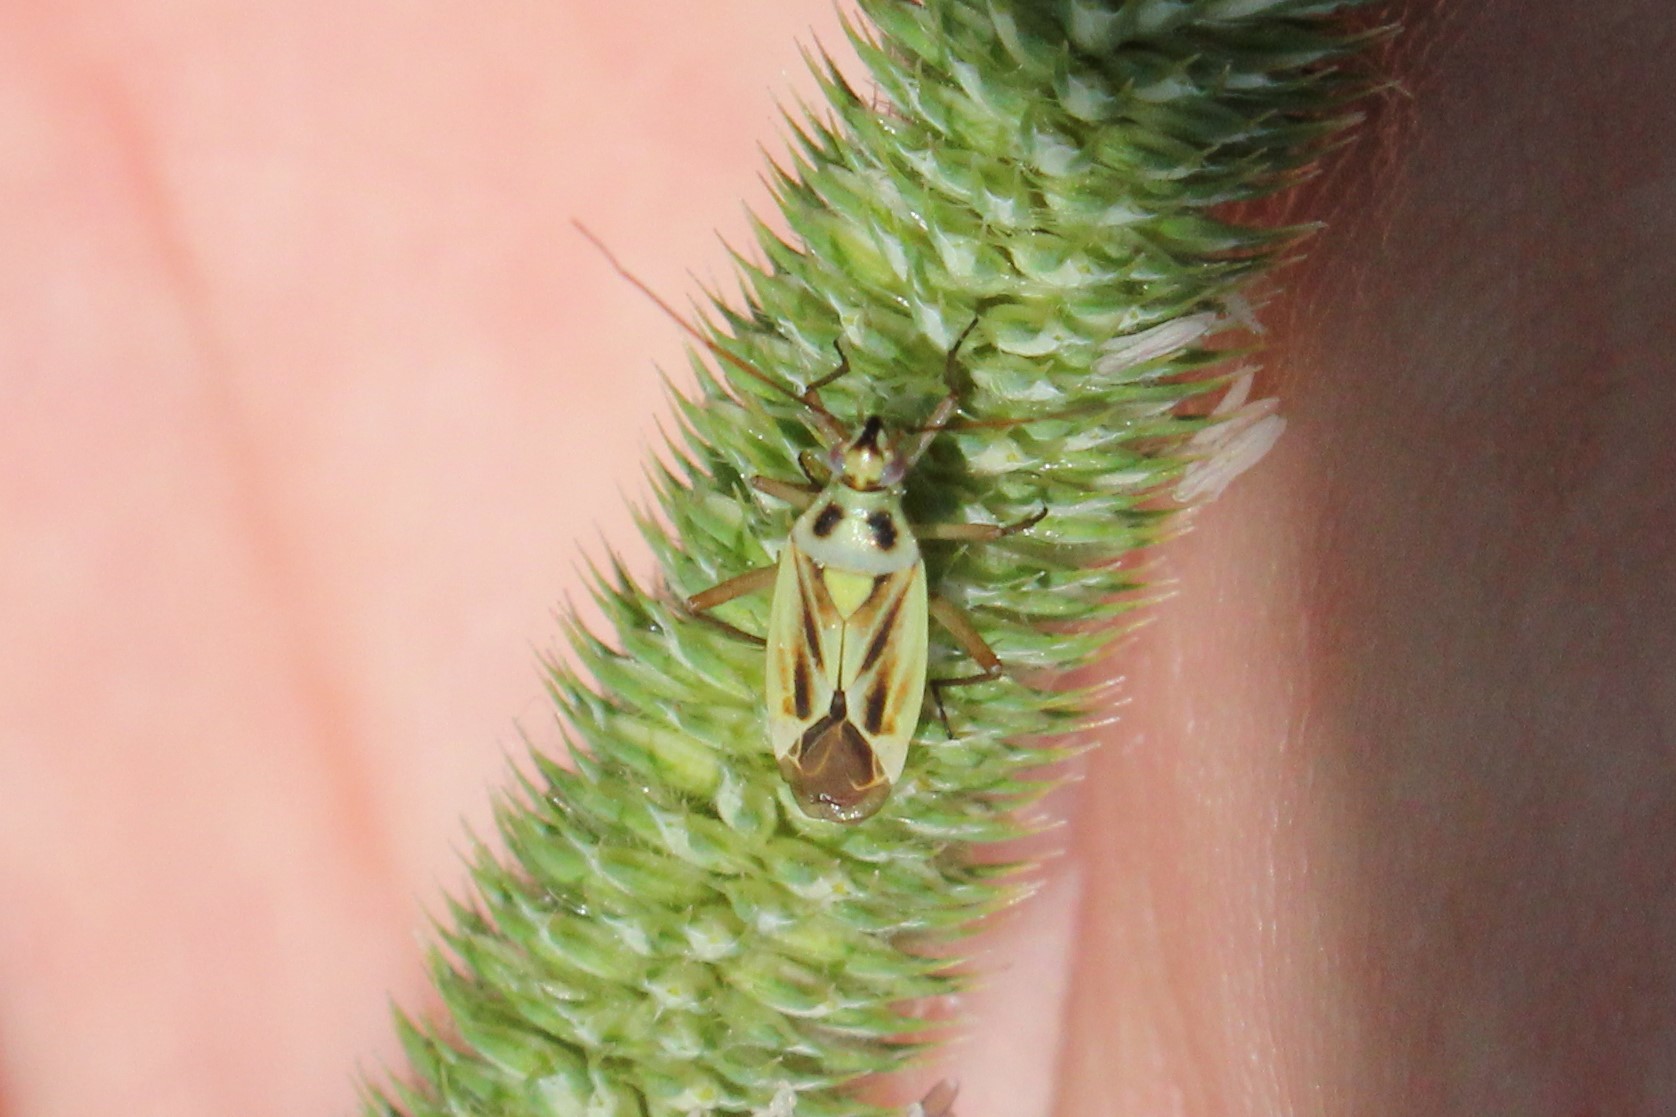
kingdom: Animalia
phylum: Arthropoda
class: Insecta
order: Hemiptera
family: Miridae
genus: Stenotus
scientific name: Stenotus binotatus
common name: Plant bug
